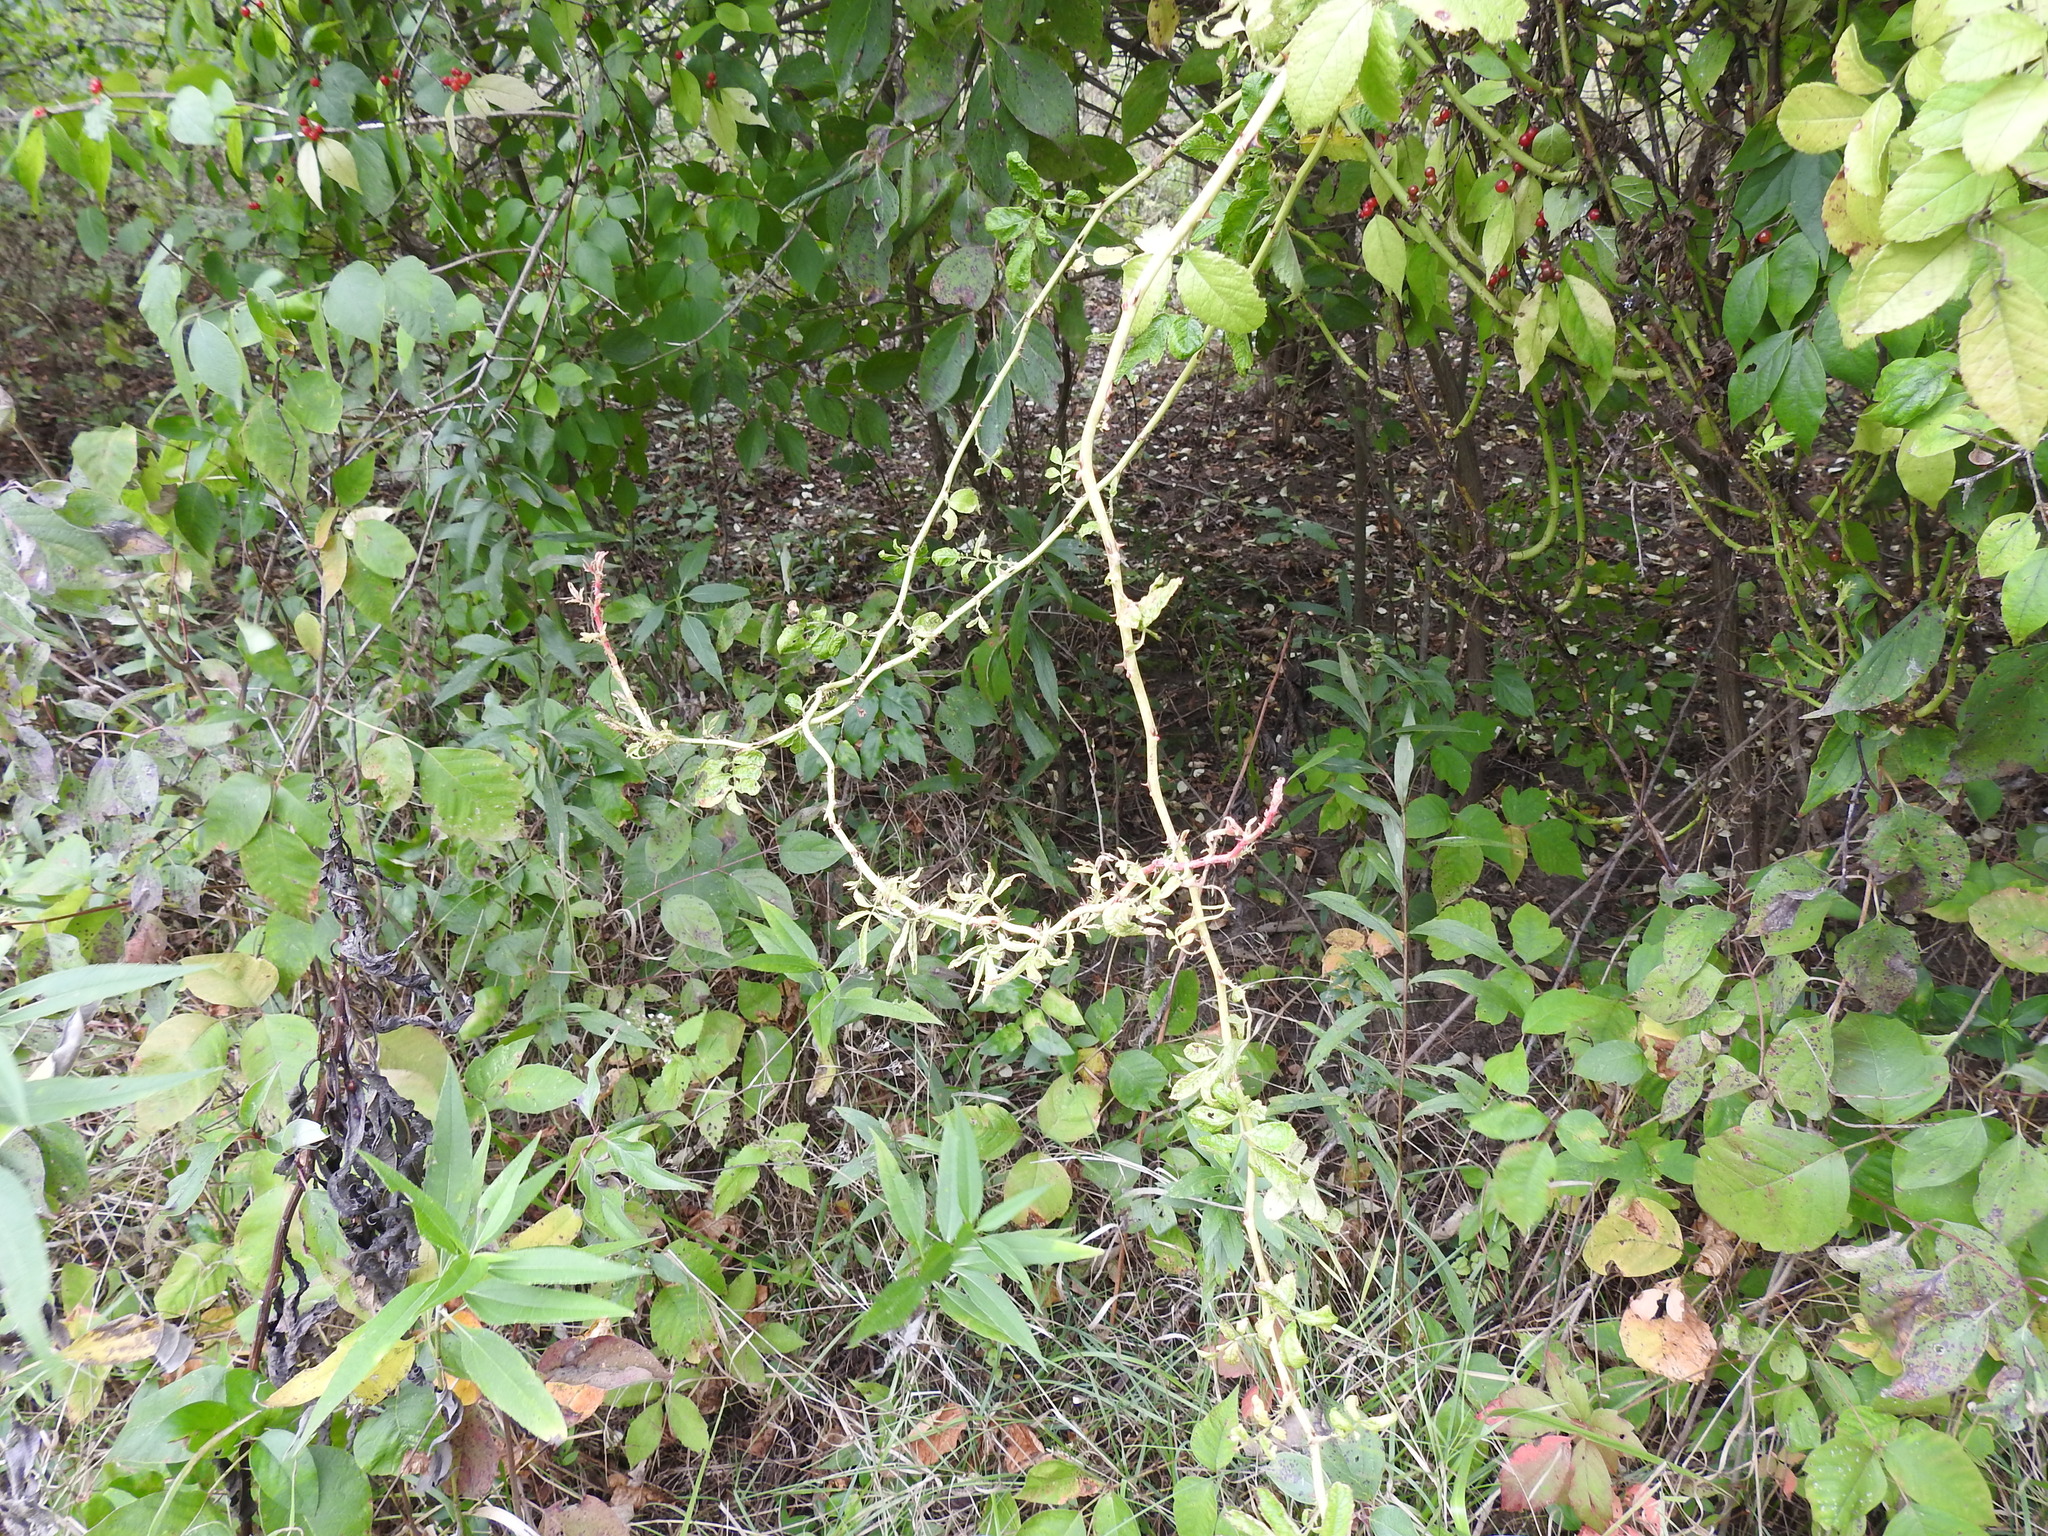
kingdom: Viruses
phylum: Negarnaviricota
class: Ellioviricetes
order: Bunyavirales
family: Fimoviridae
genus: Emaravirus
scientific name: Emaravirus rosae
